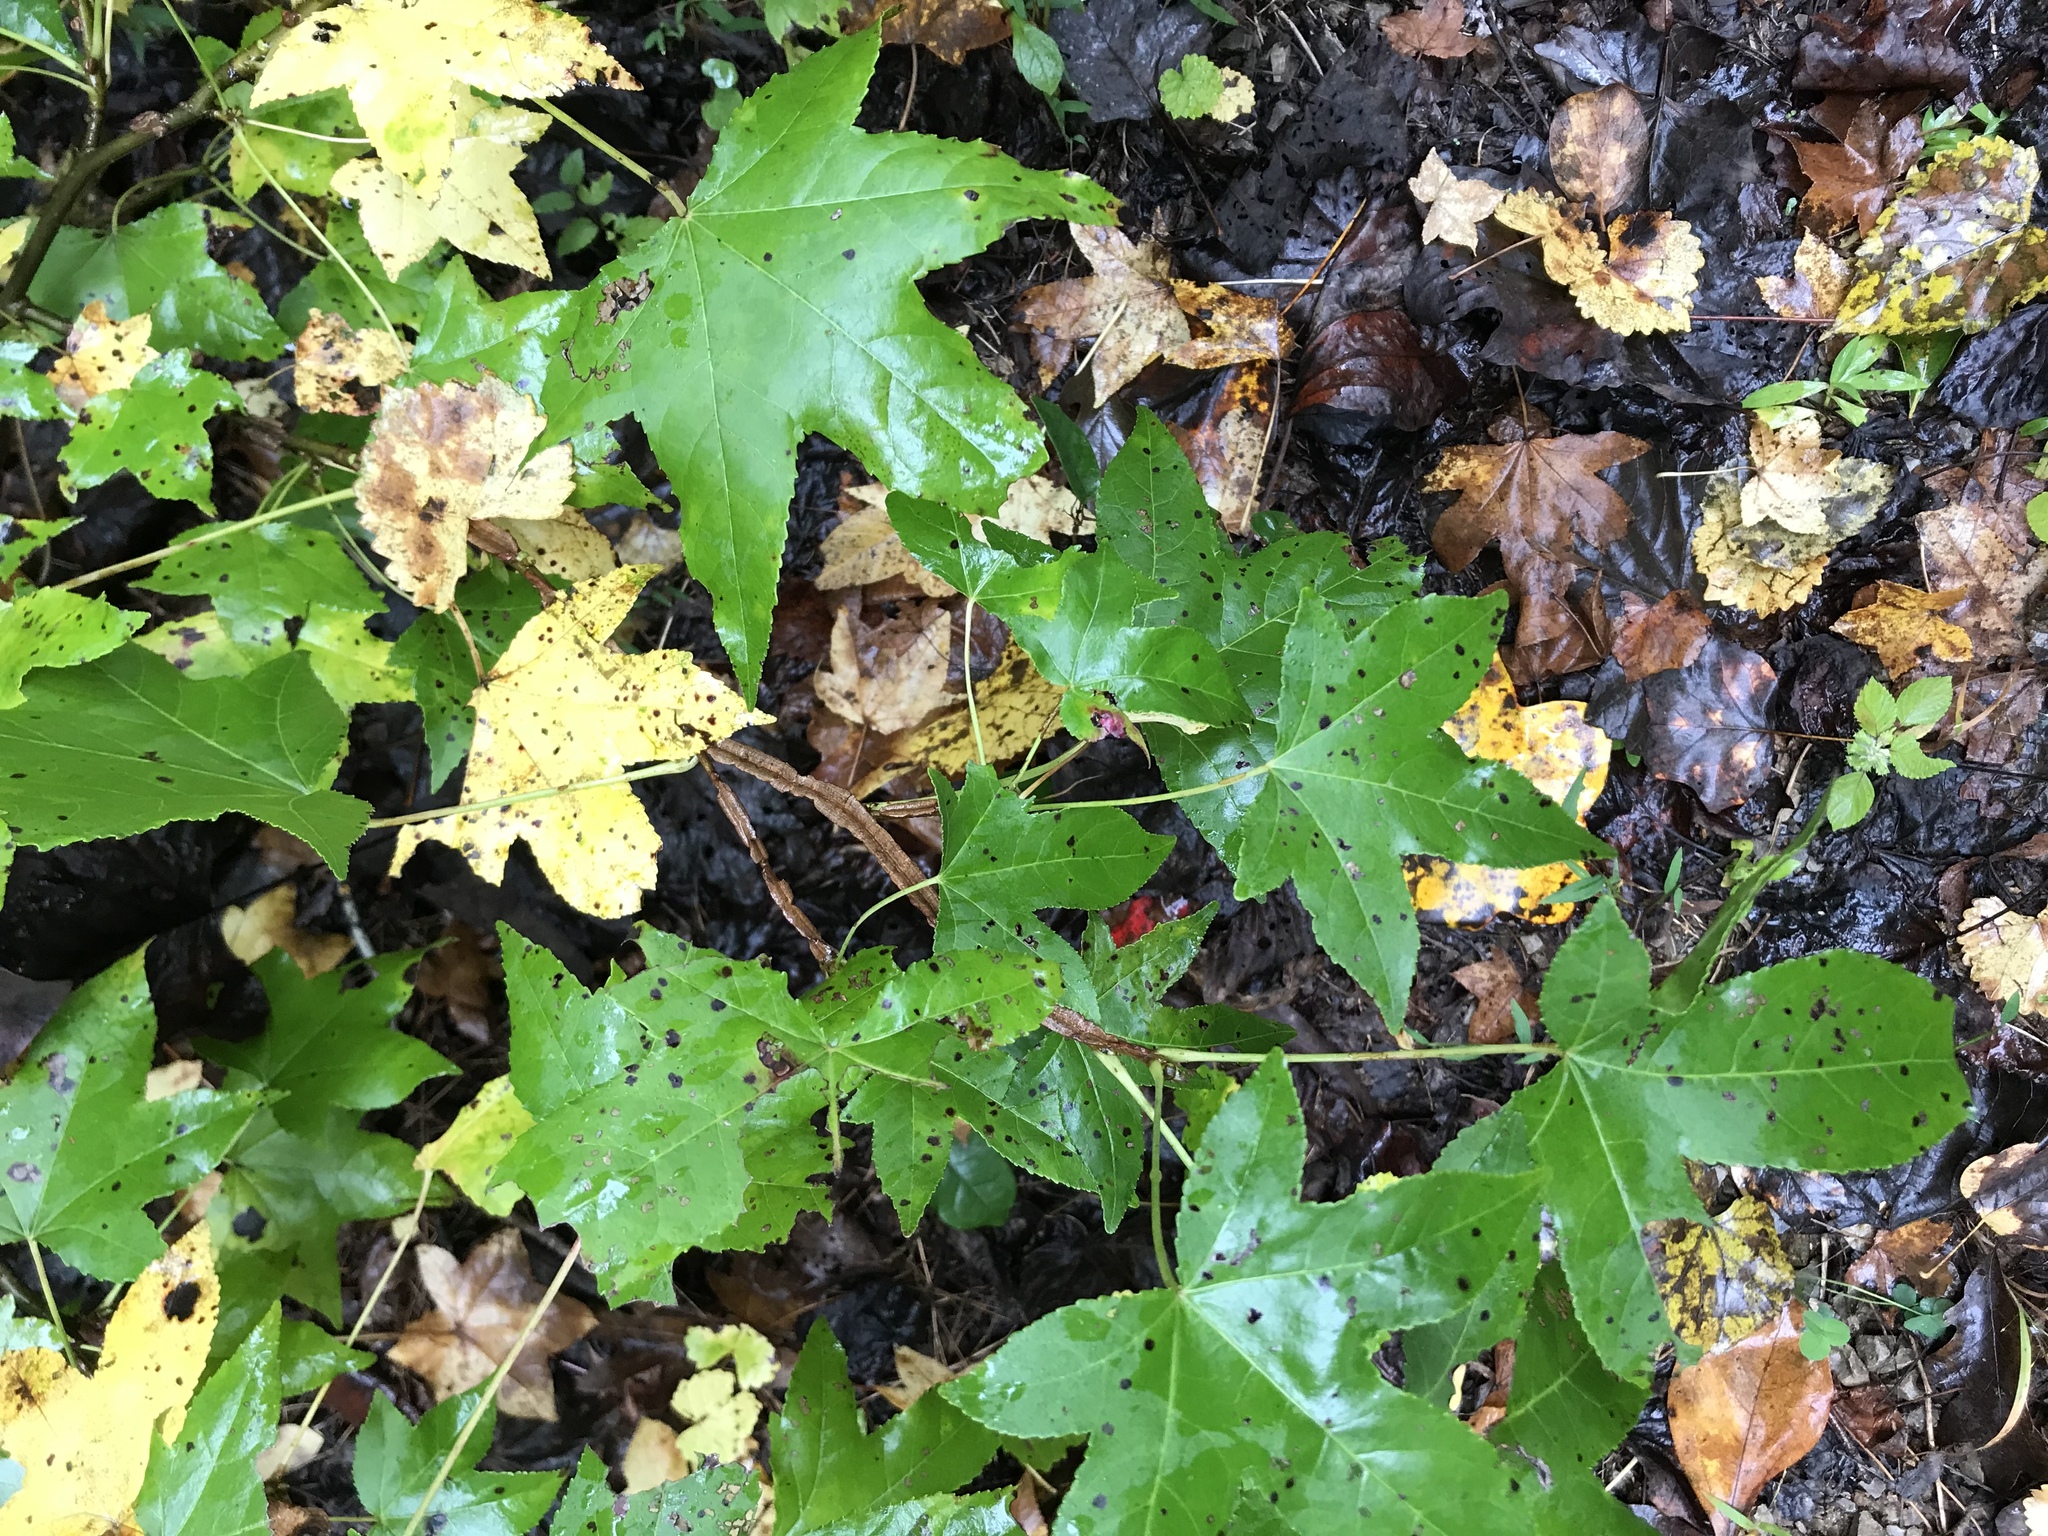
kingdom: Plantae
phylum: Tracheophyta
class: Magnoliopsida
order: Saxifragales
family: Altingiaceae
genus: Liquidambar
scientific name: Liquidambar styraciflua
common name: Sweet gum
